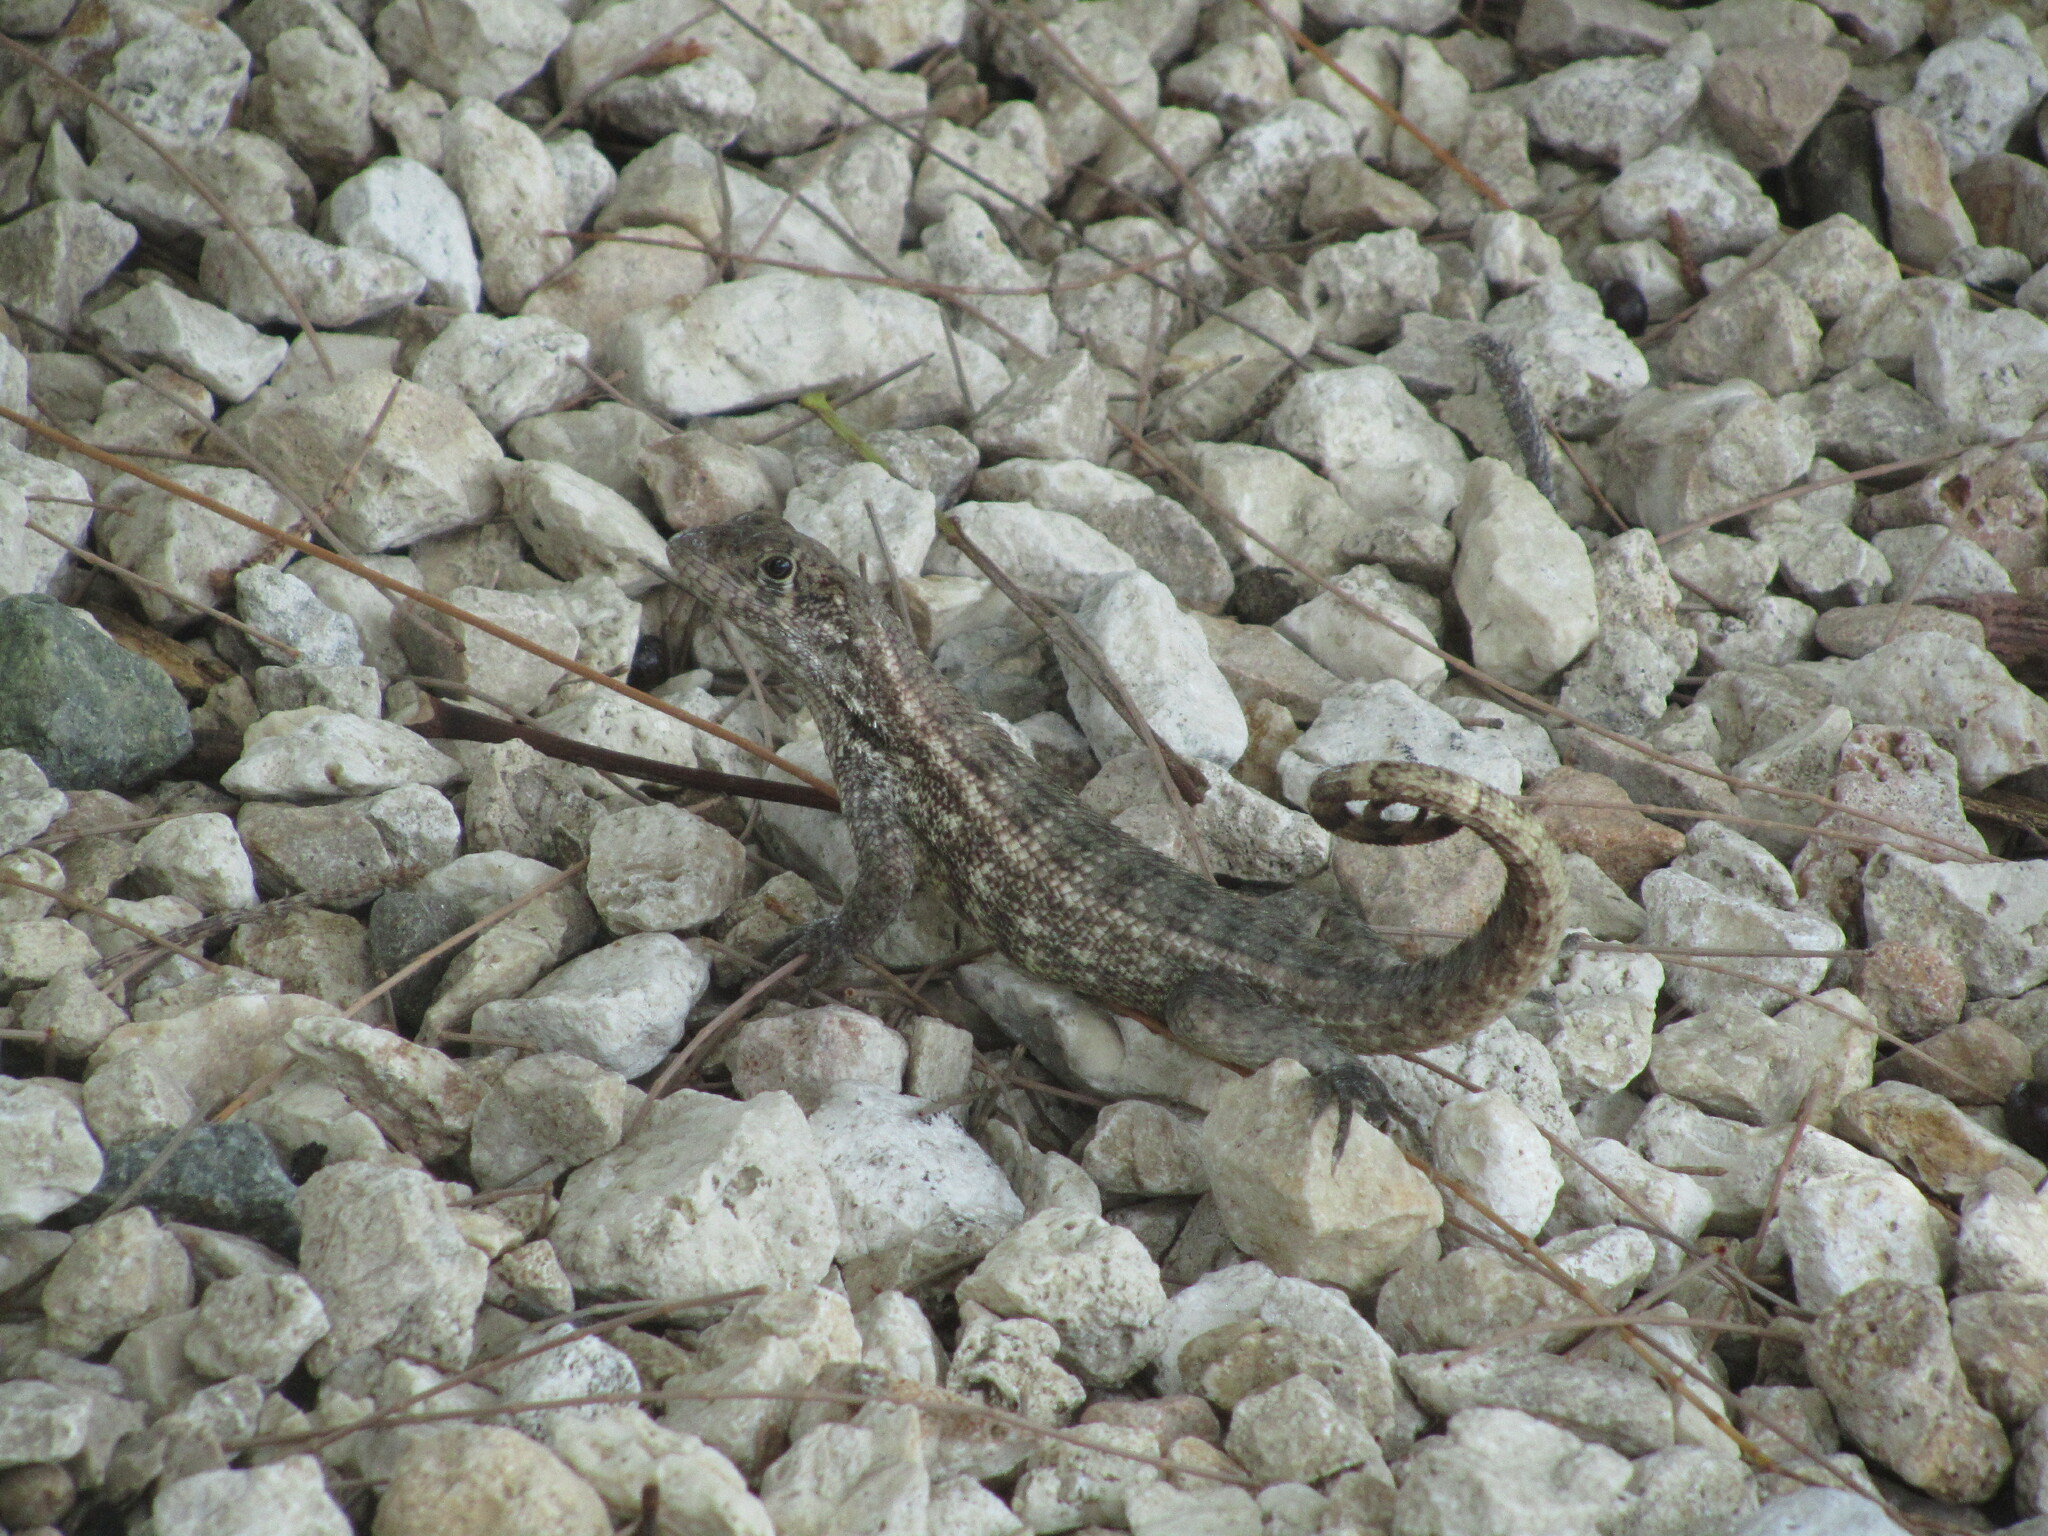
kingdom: Animalia
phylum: Chordata
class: Squamata
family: Leiocephalidae
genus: Leiocephalus
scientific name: Leiocephalus varius
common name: Cayman curlytail
